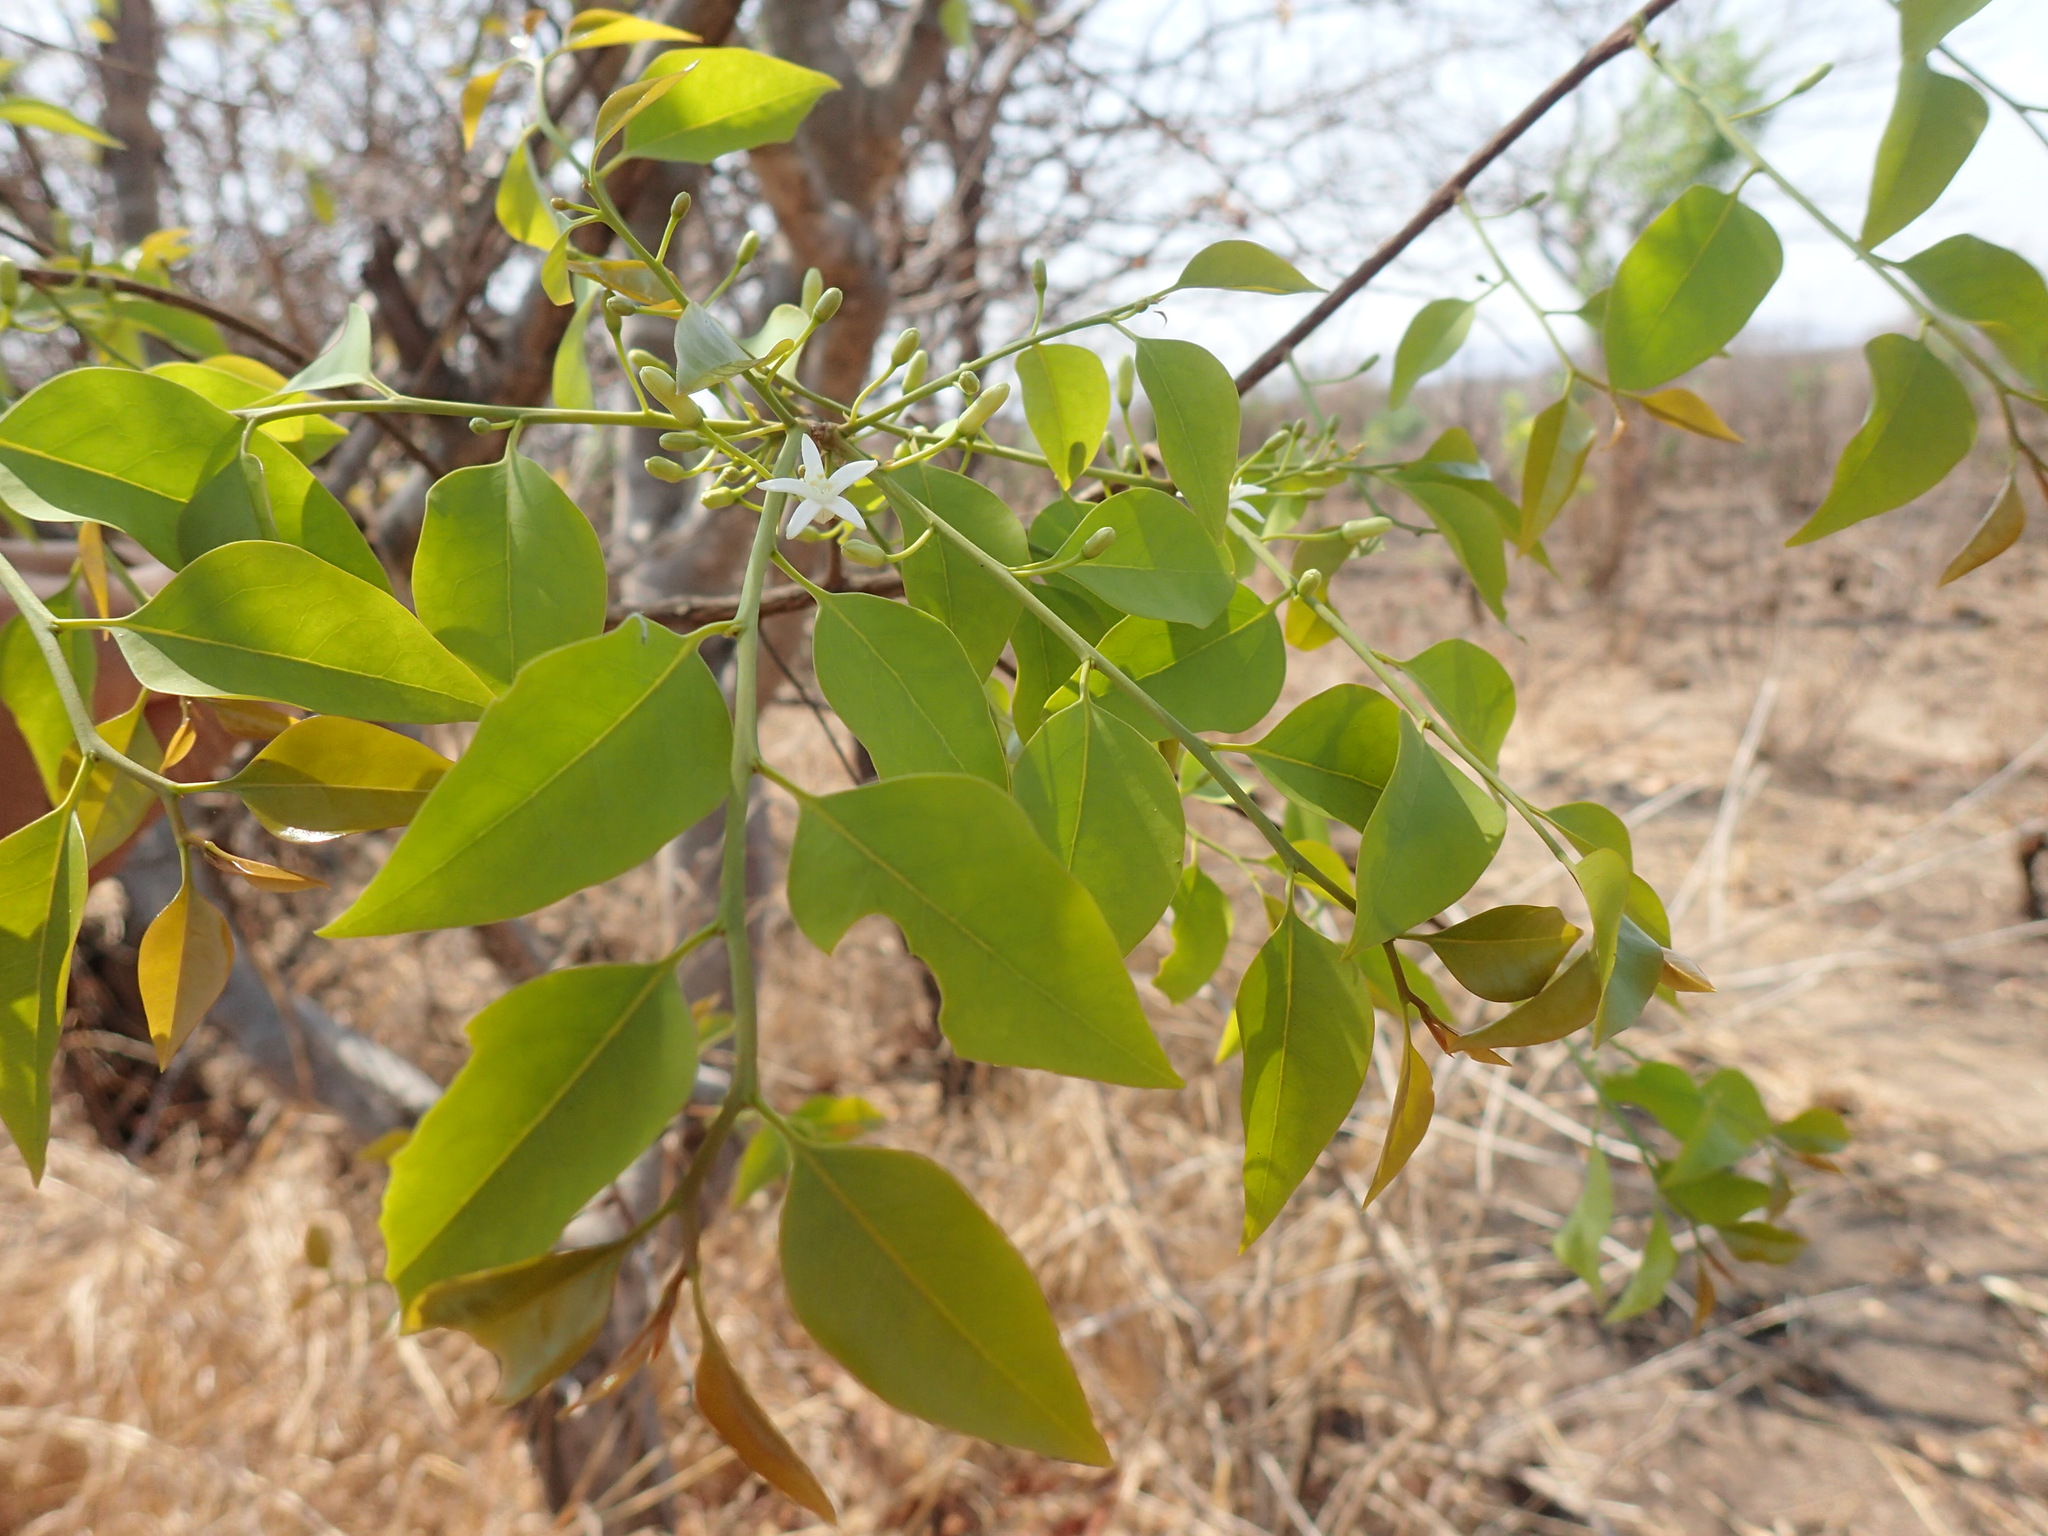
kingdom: Plantae
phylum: Tracheophyta
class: Magnoliopsida
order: Santalales
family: Olacaceae
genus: Olax
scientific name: Olax dissitiflora
